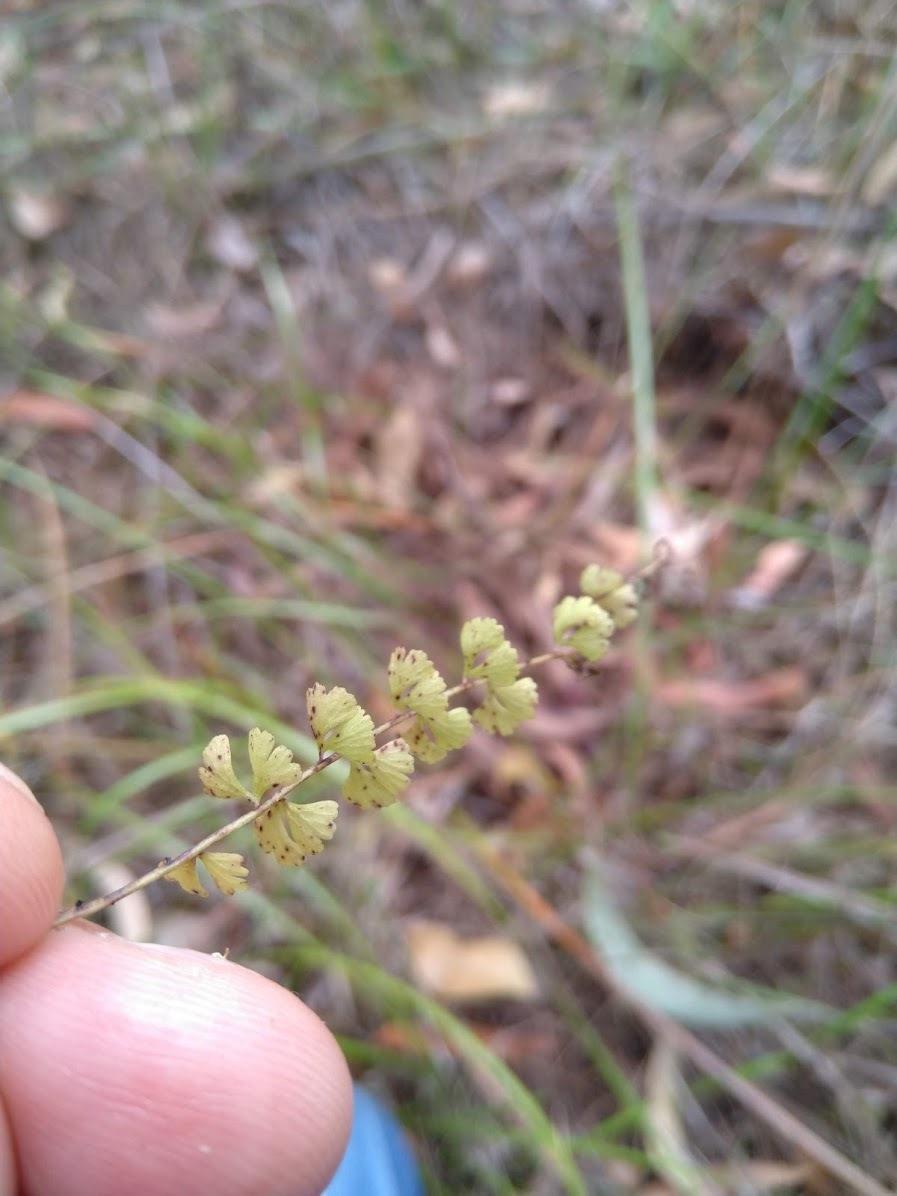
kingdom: Plantae
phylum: Tracheophyta
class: Polypodiopsida
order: Polypodiales
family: Lindsaeaceae
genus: Lindsaea
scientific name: Lindsaea incisa
